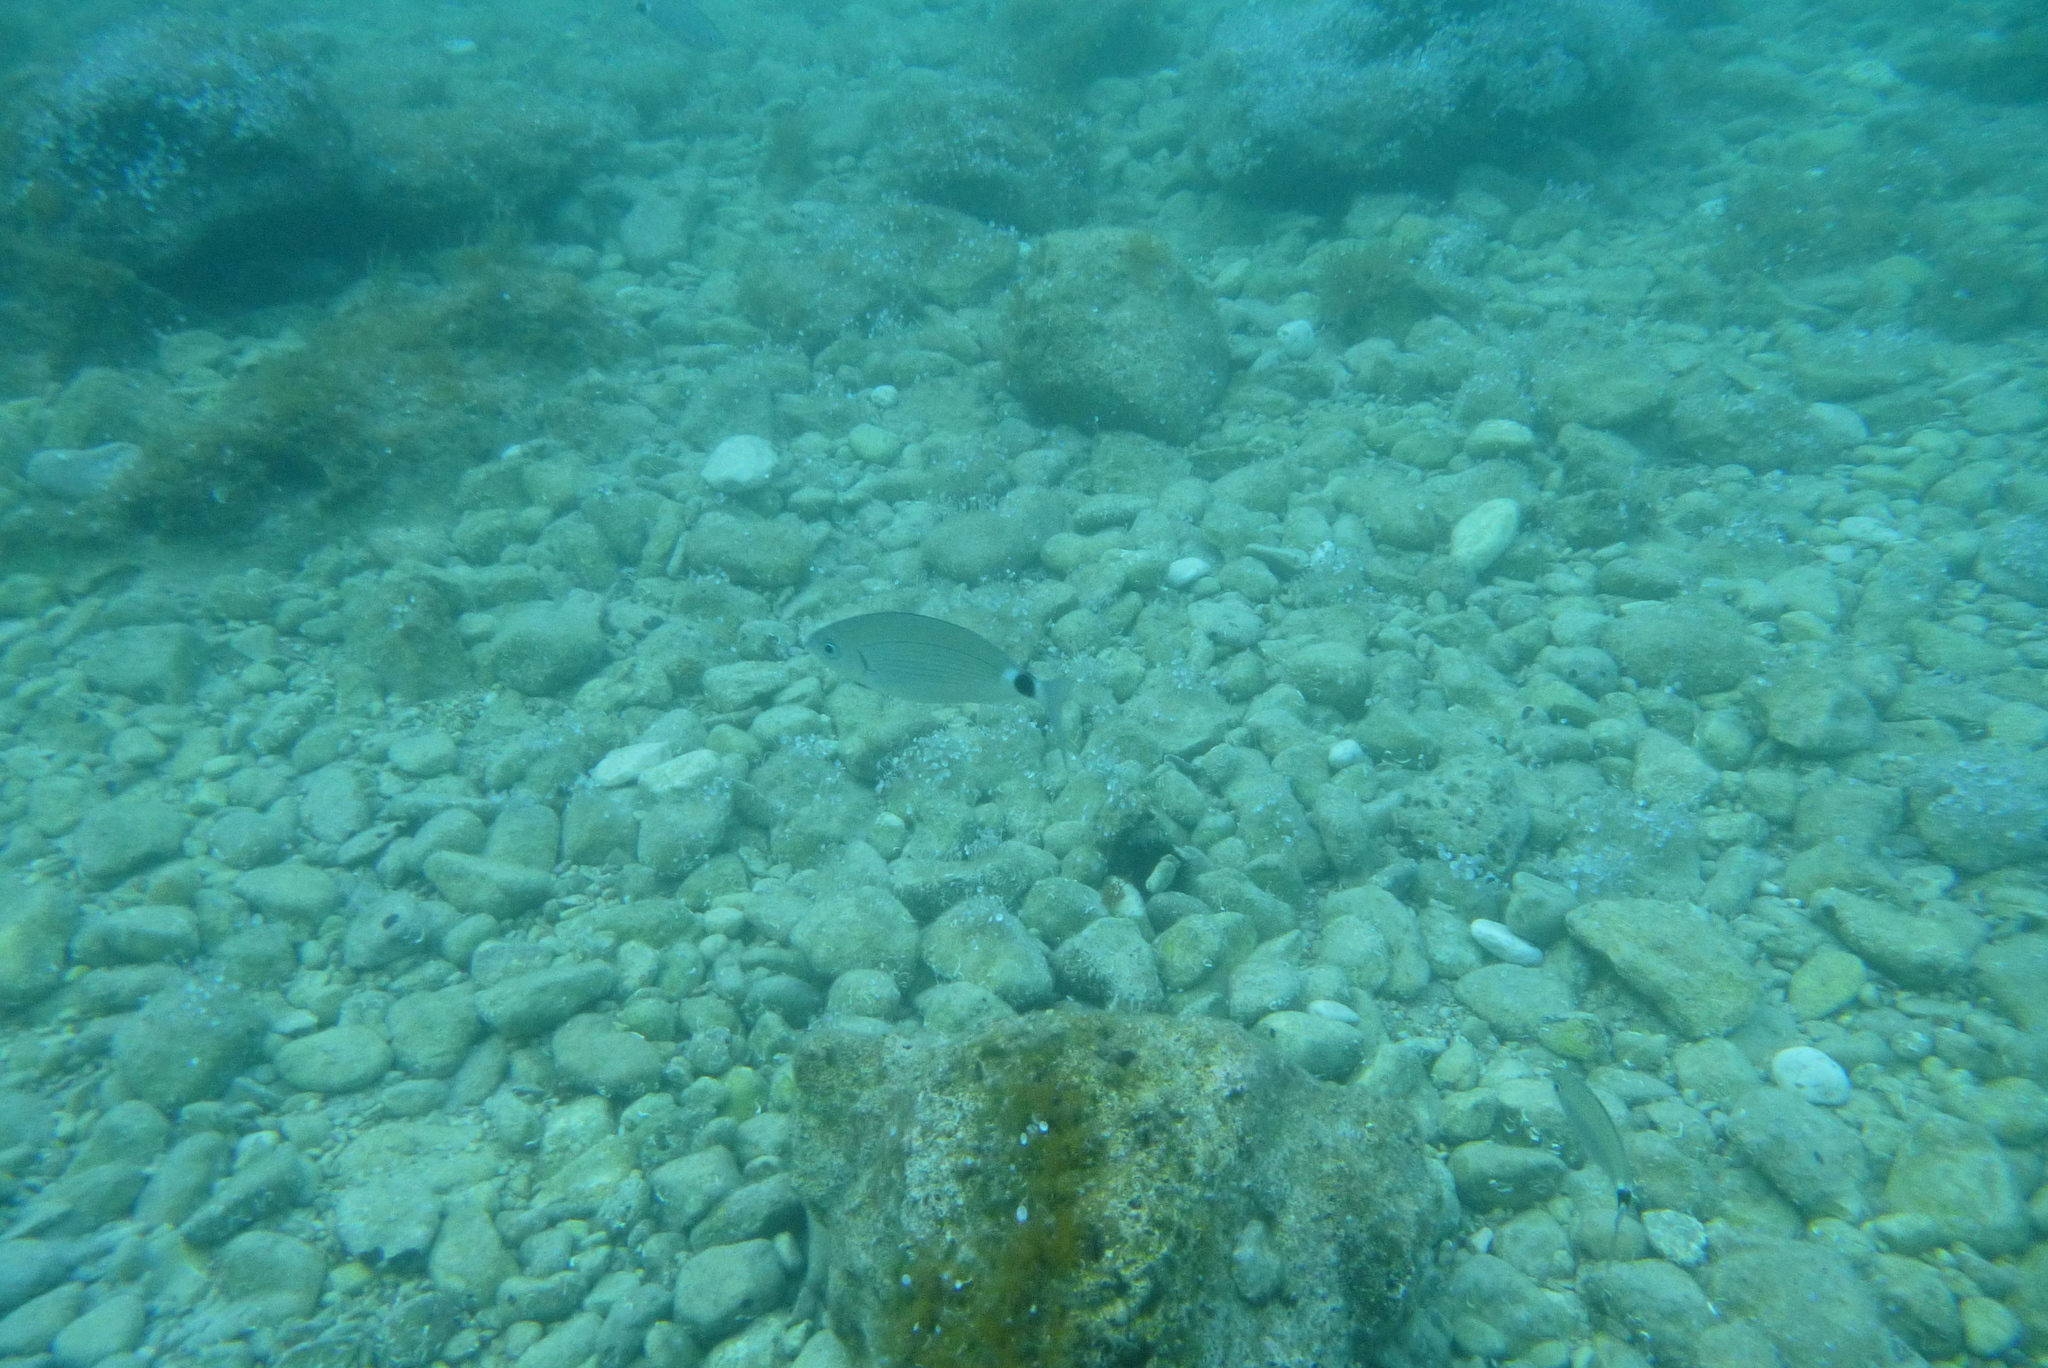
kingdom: Animalia
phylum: Chordata
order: Perciformes
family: Sparidae
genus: Oblada
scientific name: Oblada melanura
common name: Saddled seabream
